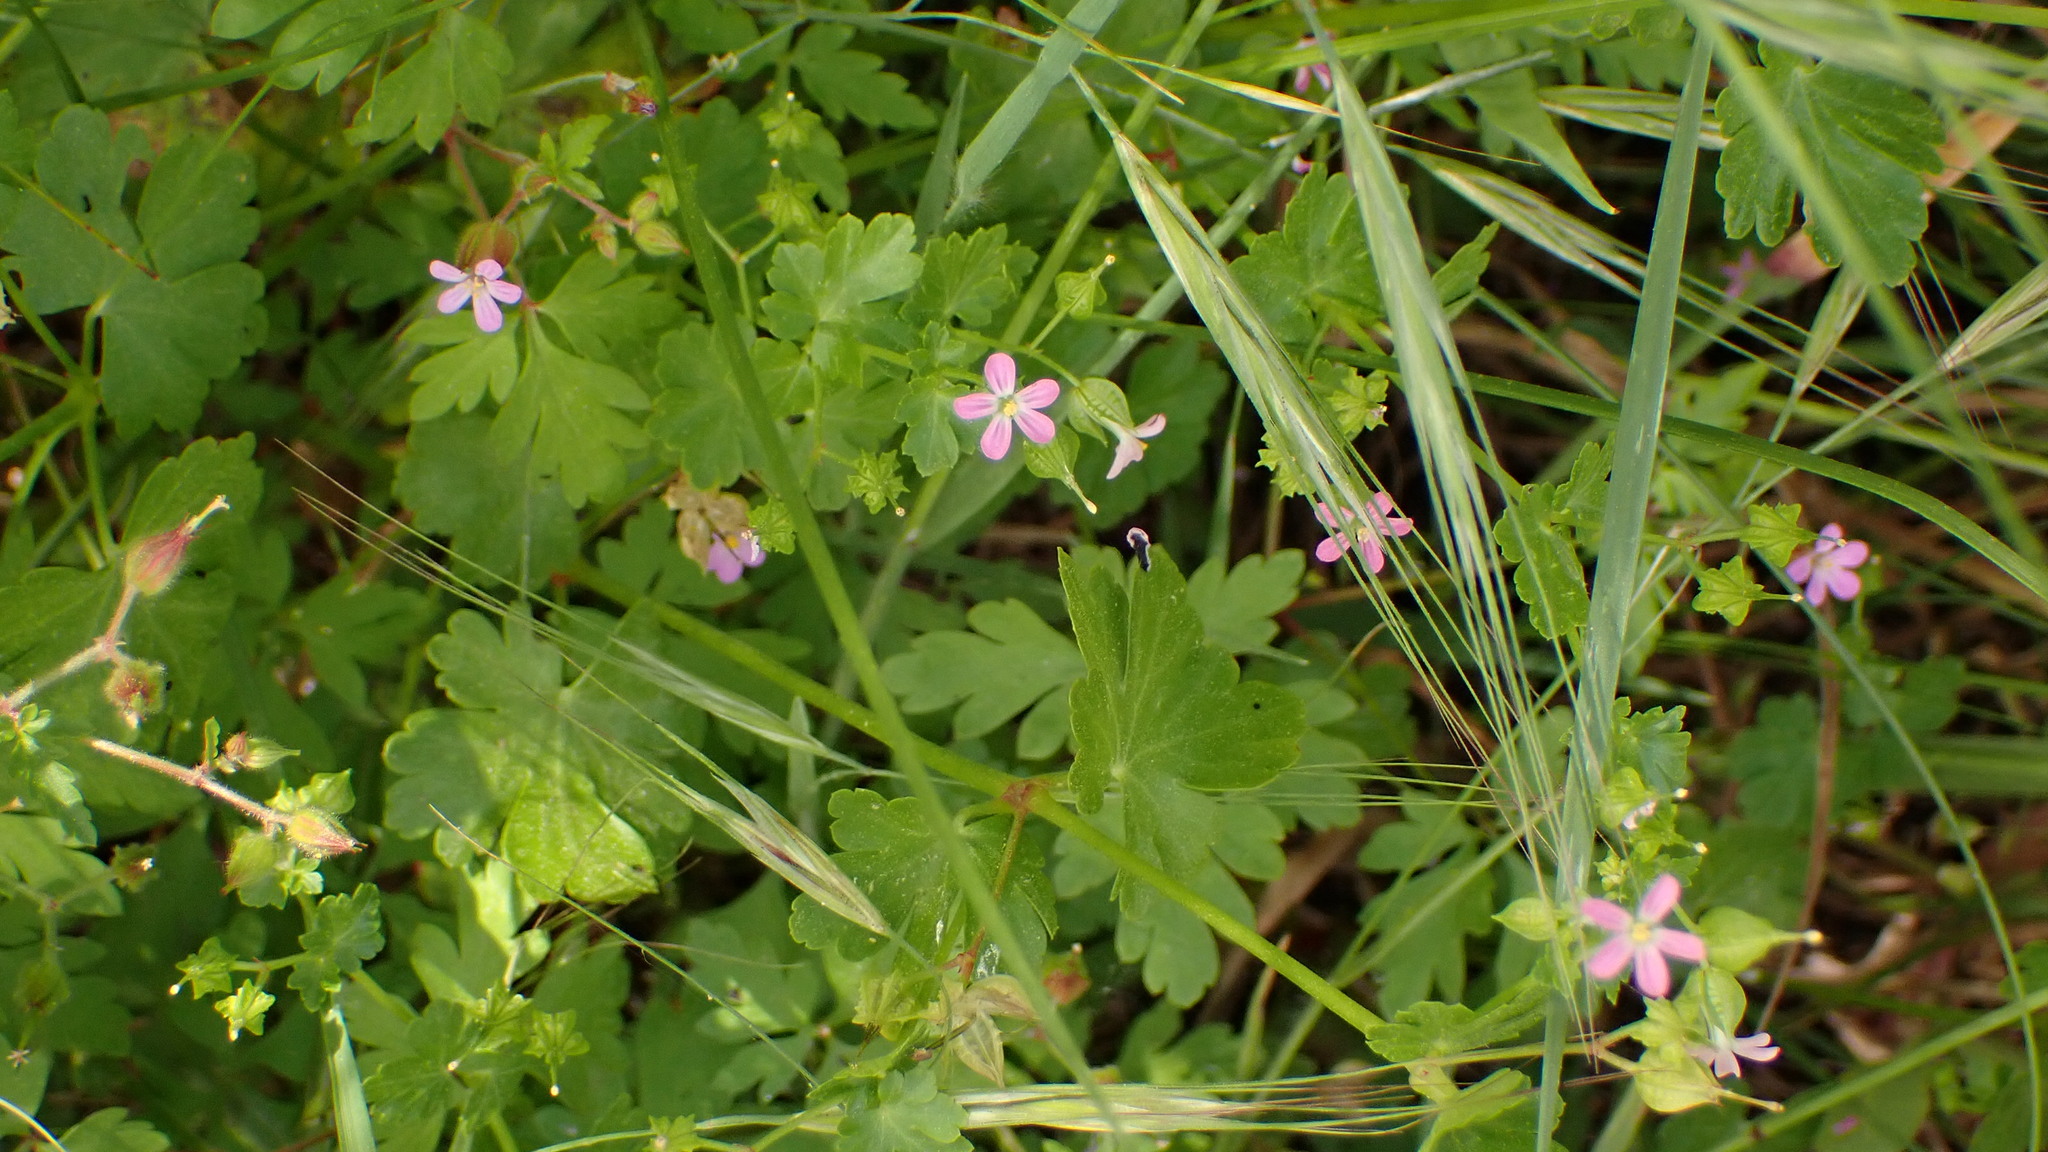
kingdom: Plantae
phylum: Tracheophyta
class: Magnoliopsida
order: Geraniales
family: Geraniaceae
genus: Geranium
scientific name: Geranium lucidum
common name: Shining crane's-bill
